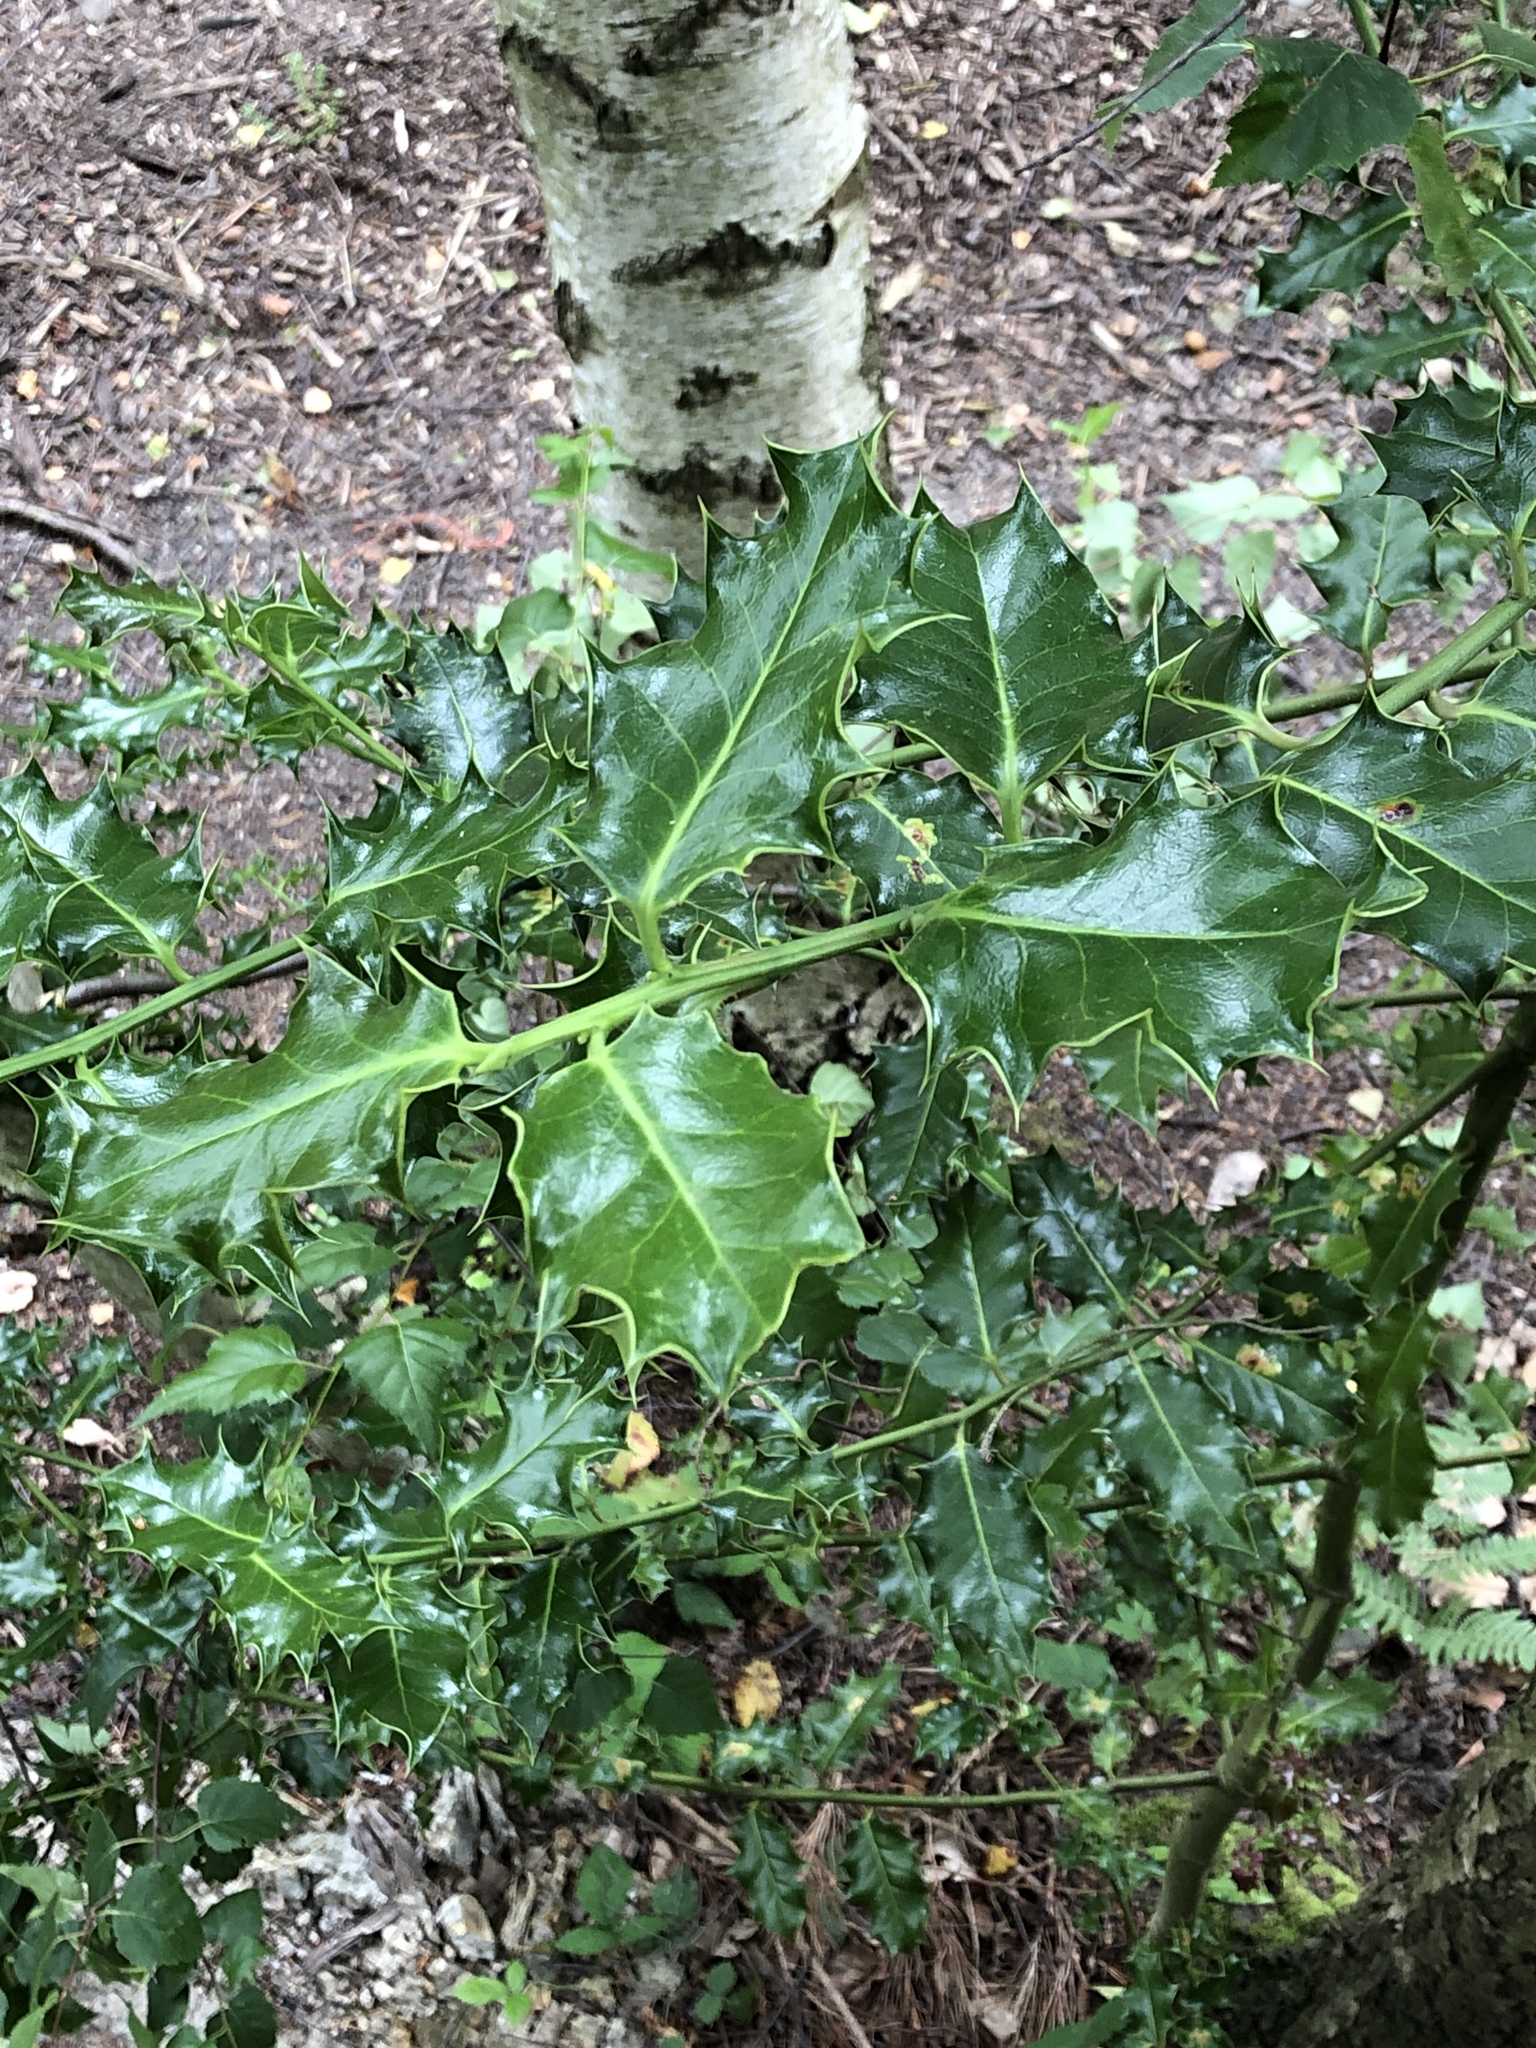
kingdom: Plantae
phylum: Tracheophyta
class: Magnoliopsida
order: Aquifoliales
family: Aquifoliaceae
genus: Ilex
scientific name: Ilex aquifolium
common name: English holly
